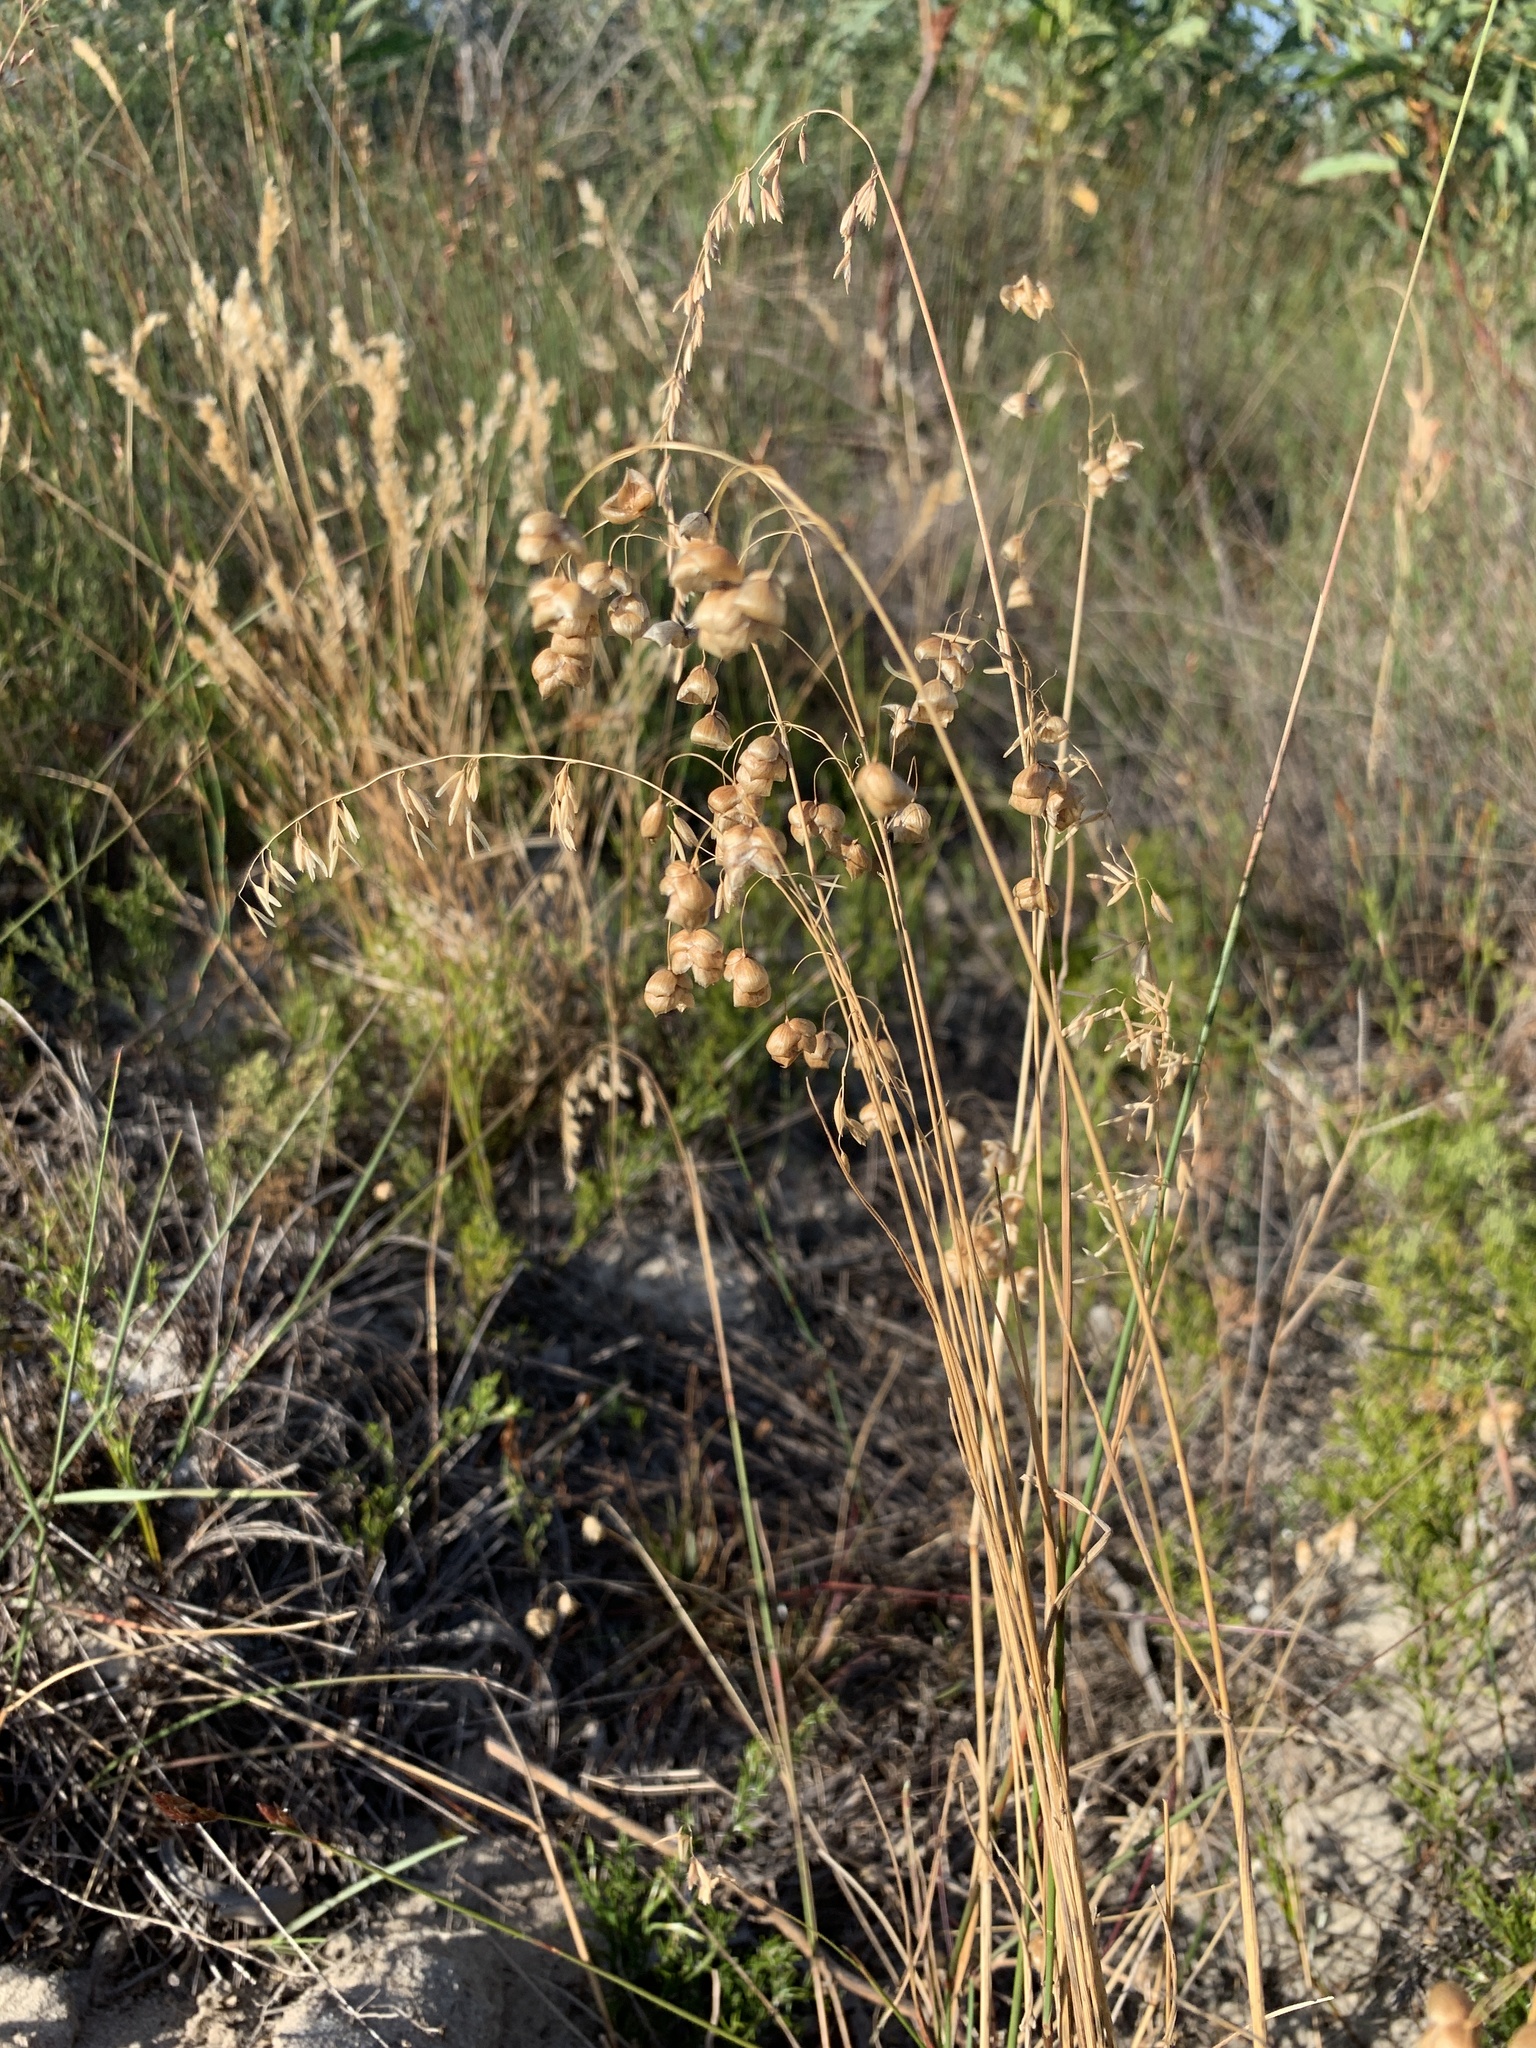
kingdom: Plantae
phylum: Tracheophyta
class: Liliopsida
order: Poales
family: Poaceae
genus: Briza
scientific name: Briza maxima
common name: Big quakinggrass
